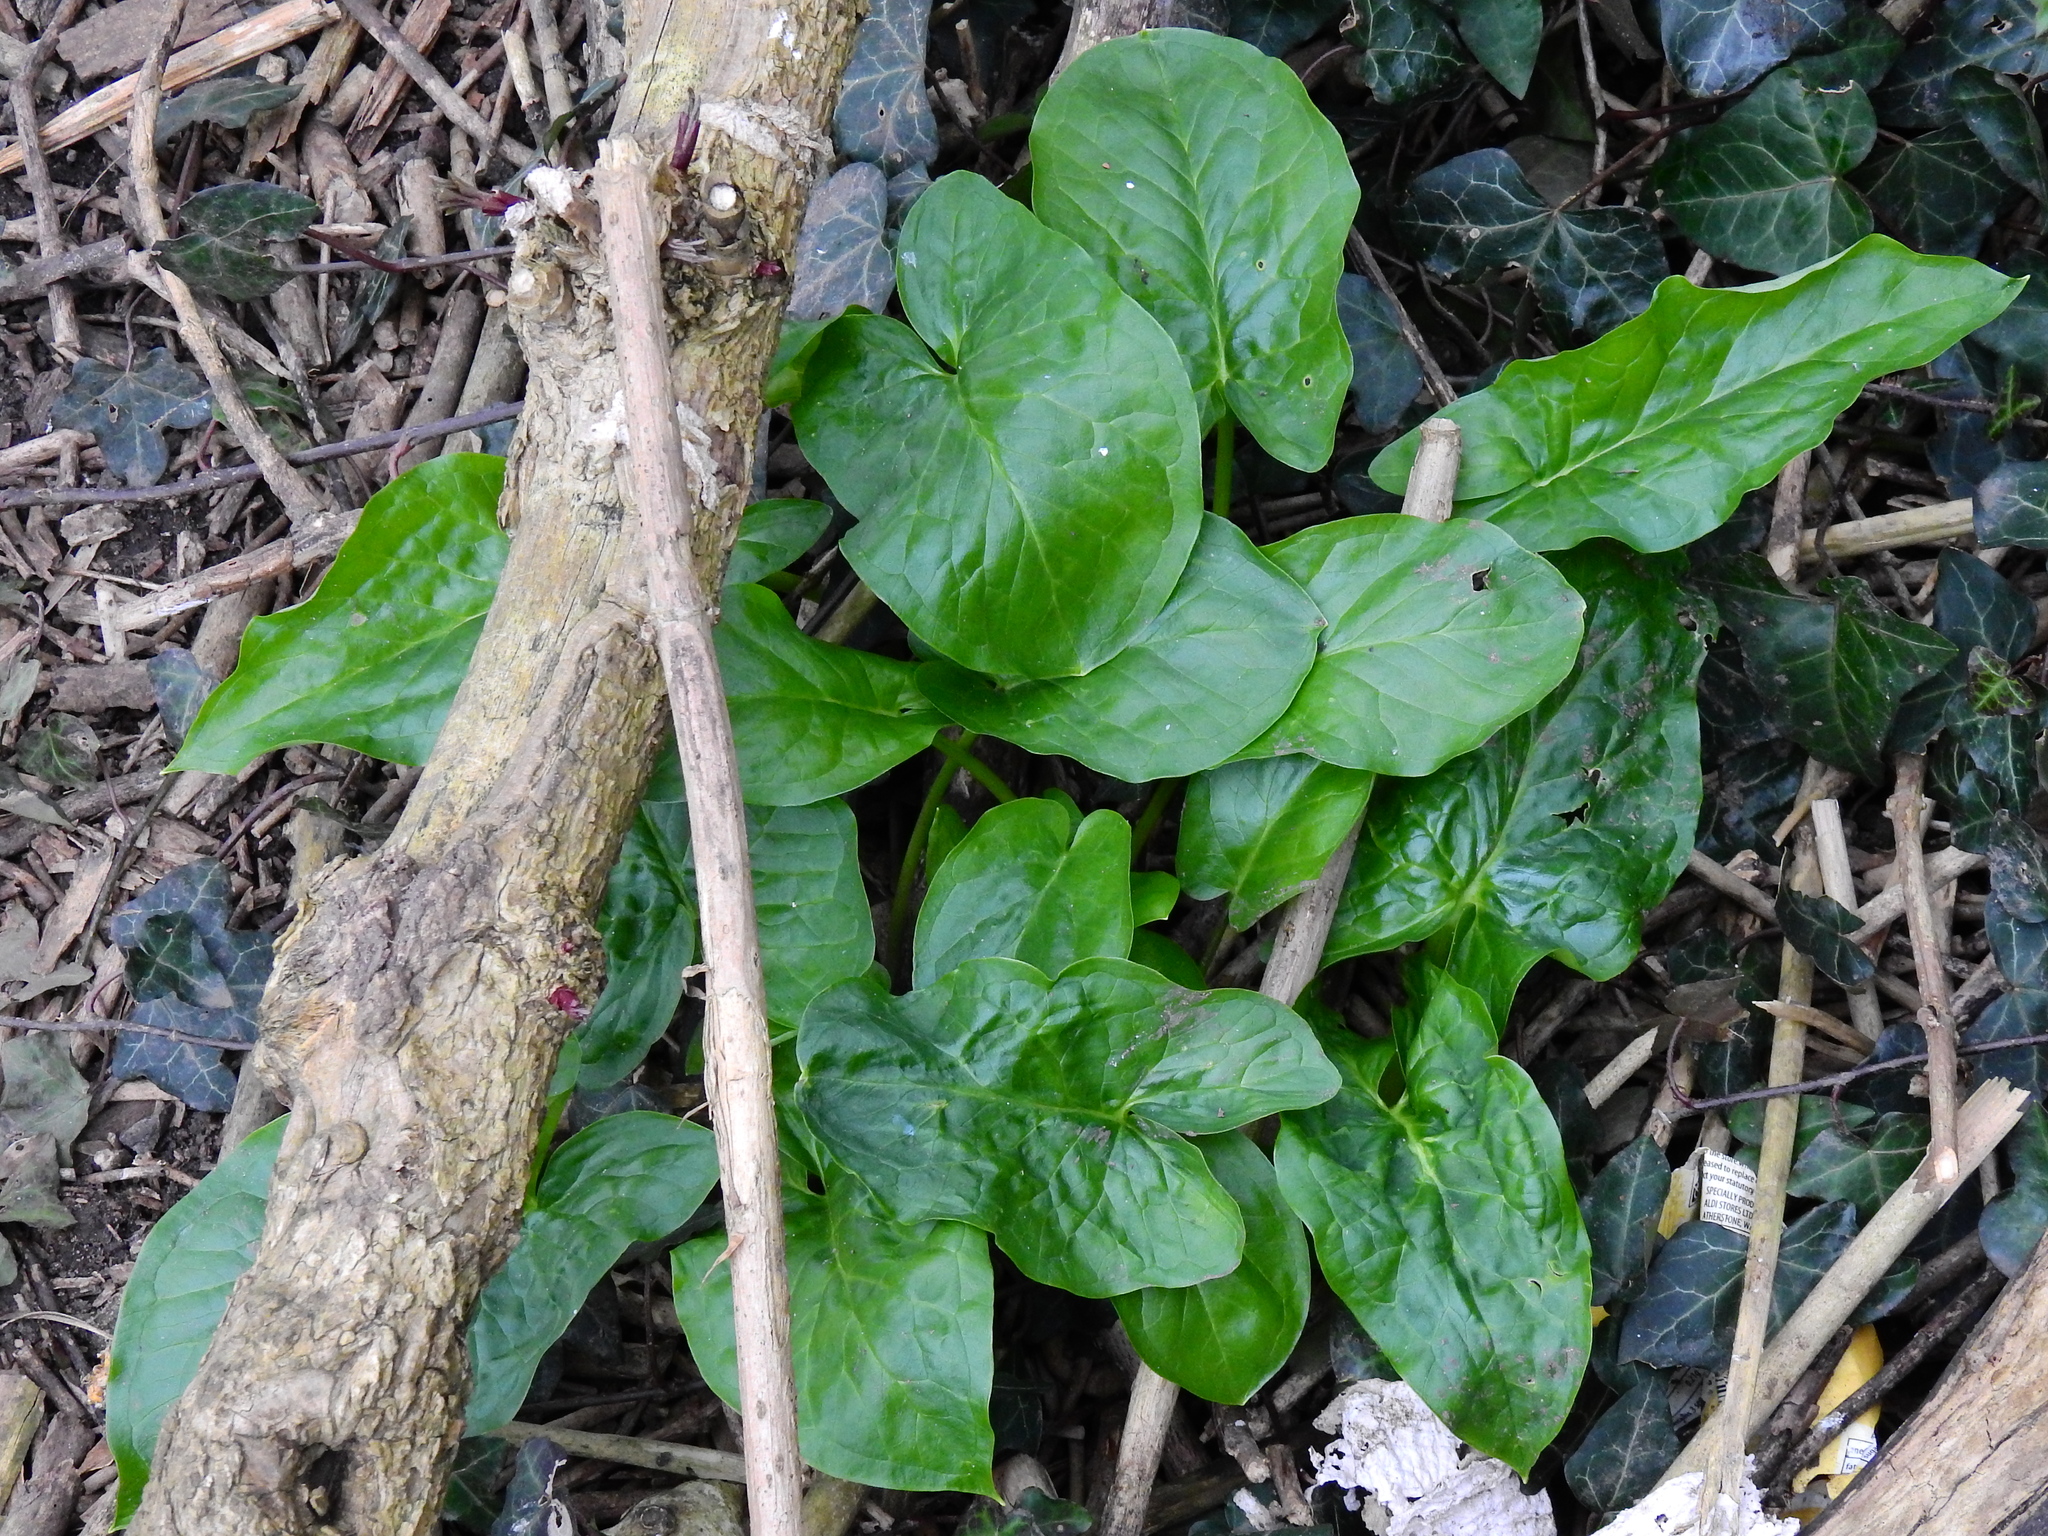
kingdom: Plantae
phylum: Tracheophyta
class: Liliopsida
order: Alismatales
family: Araceae
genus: Arum
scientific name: Arum maculatum
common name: Lords-and-ladies
